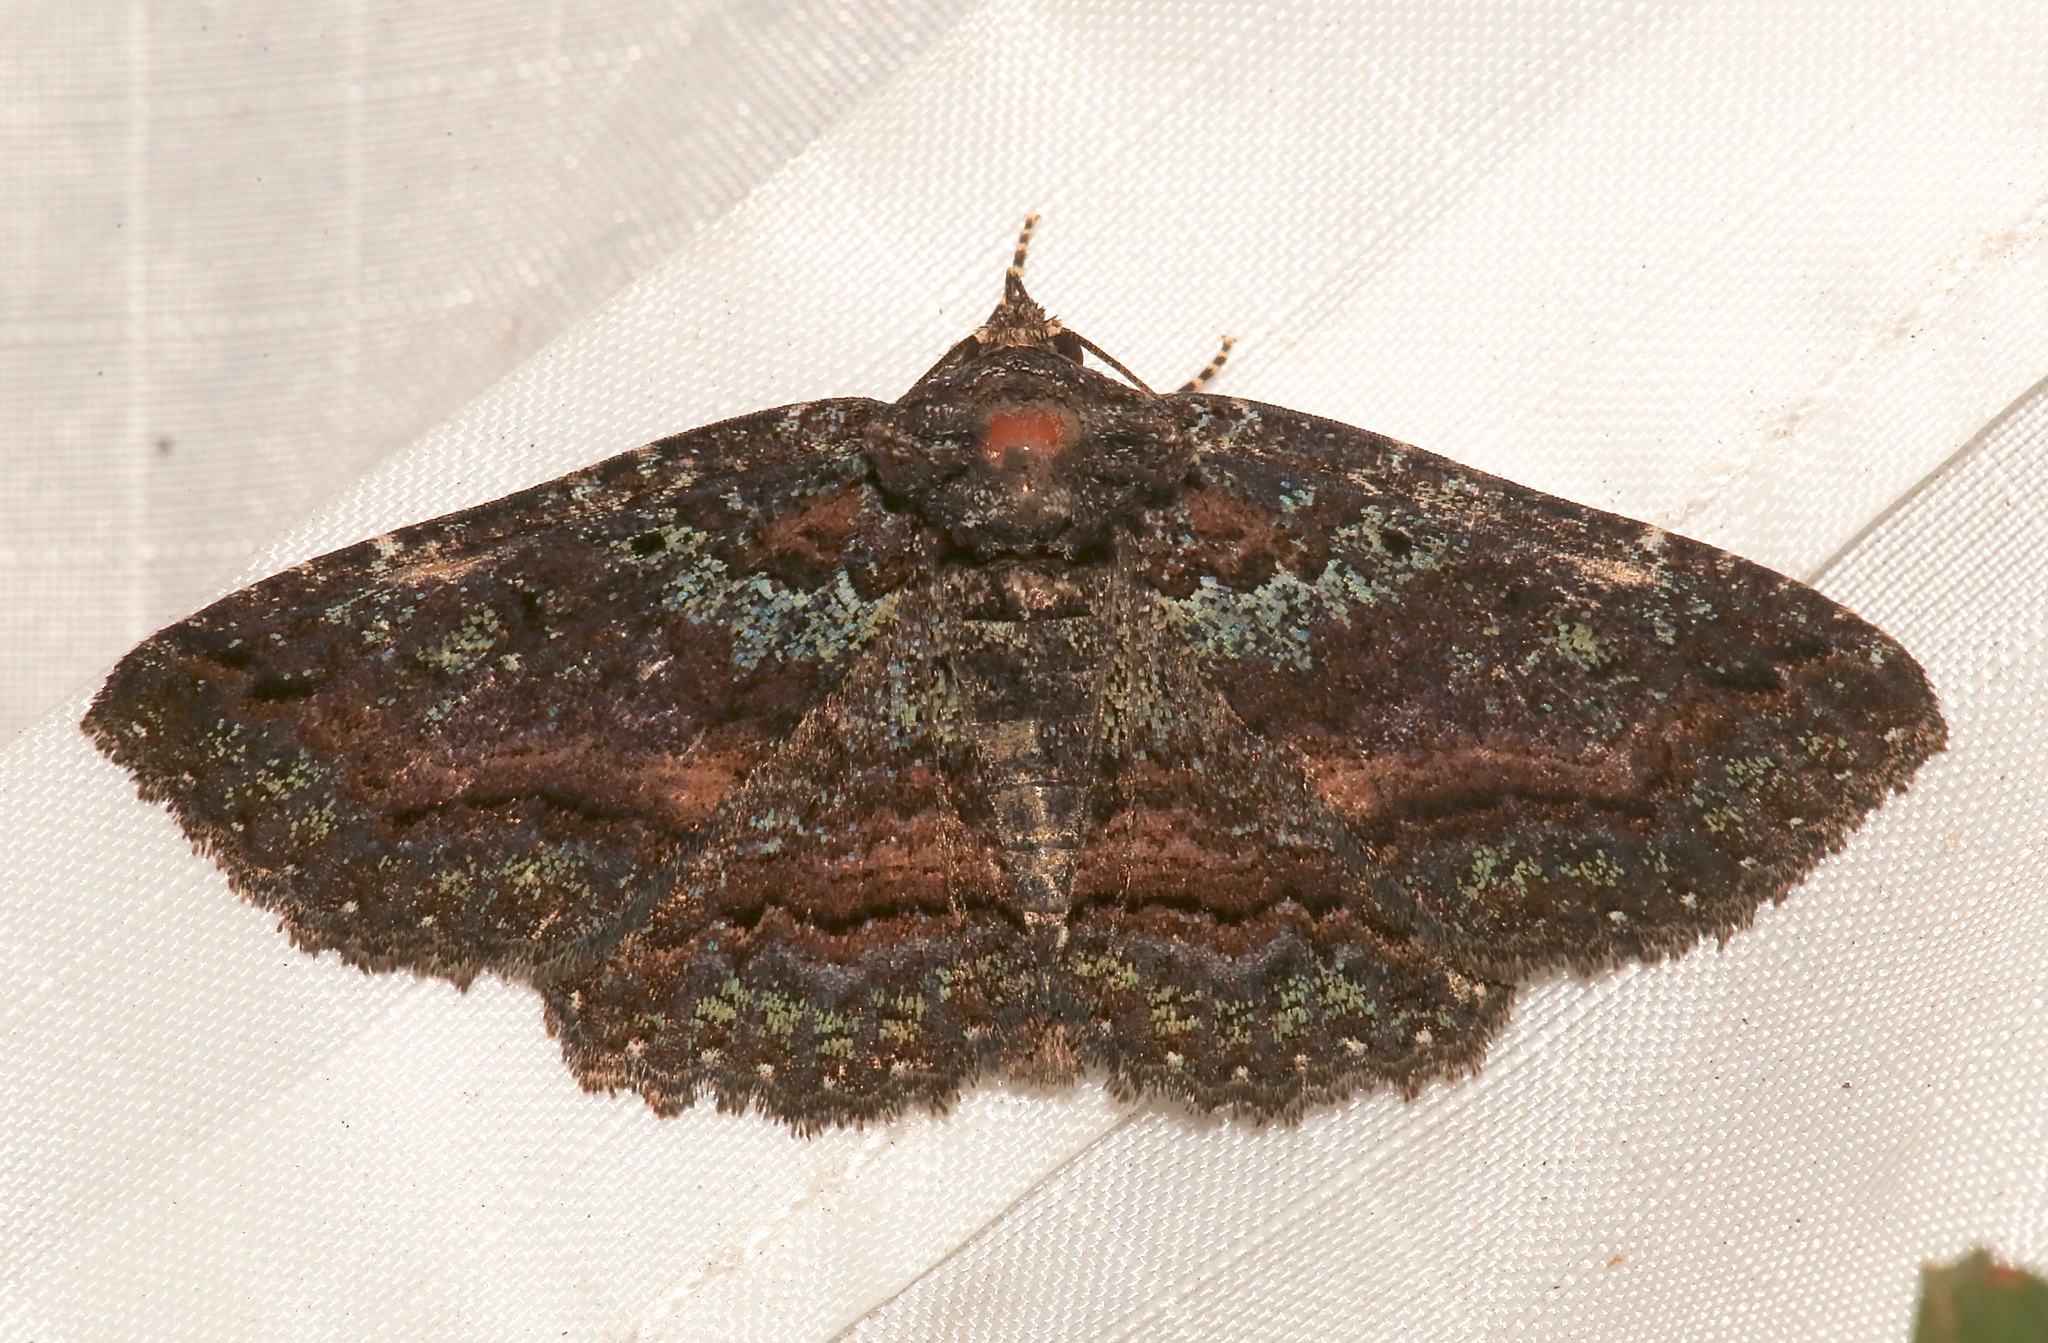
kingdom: Animalia
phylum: Arthropoda
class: Insecta
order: Lepidoptera
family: Erebidae
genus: Zale
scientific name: Zale aeruginosa
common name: Green-dusted zale moth
